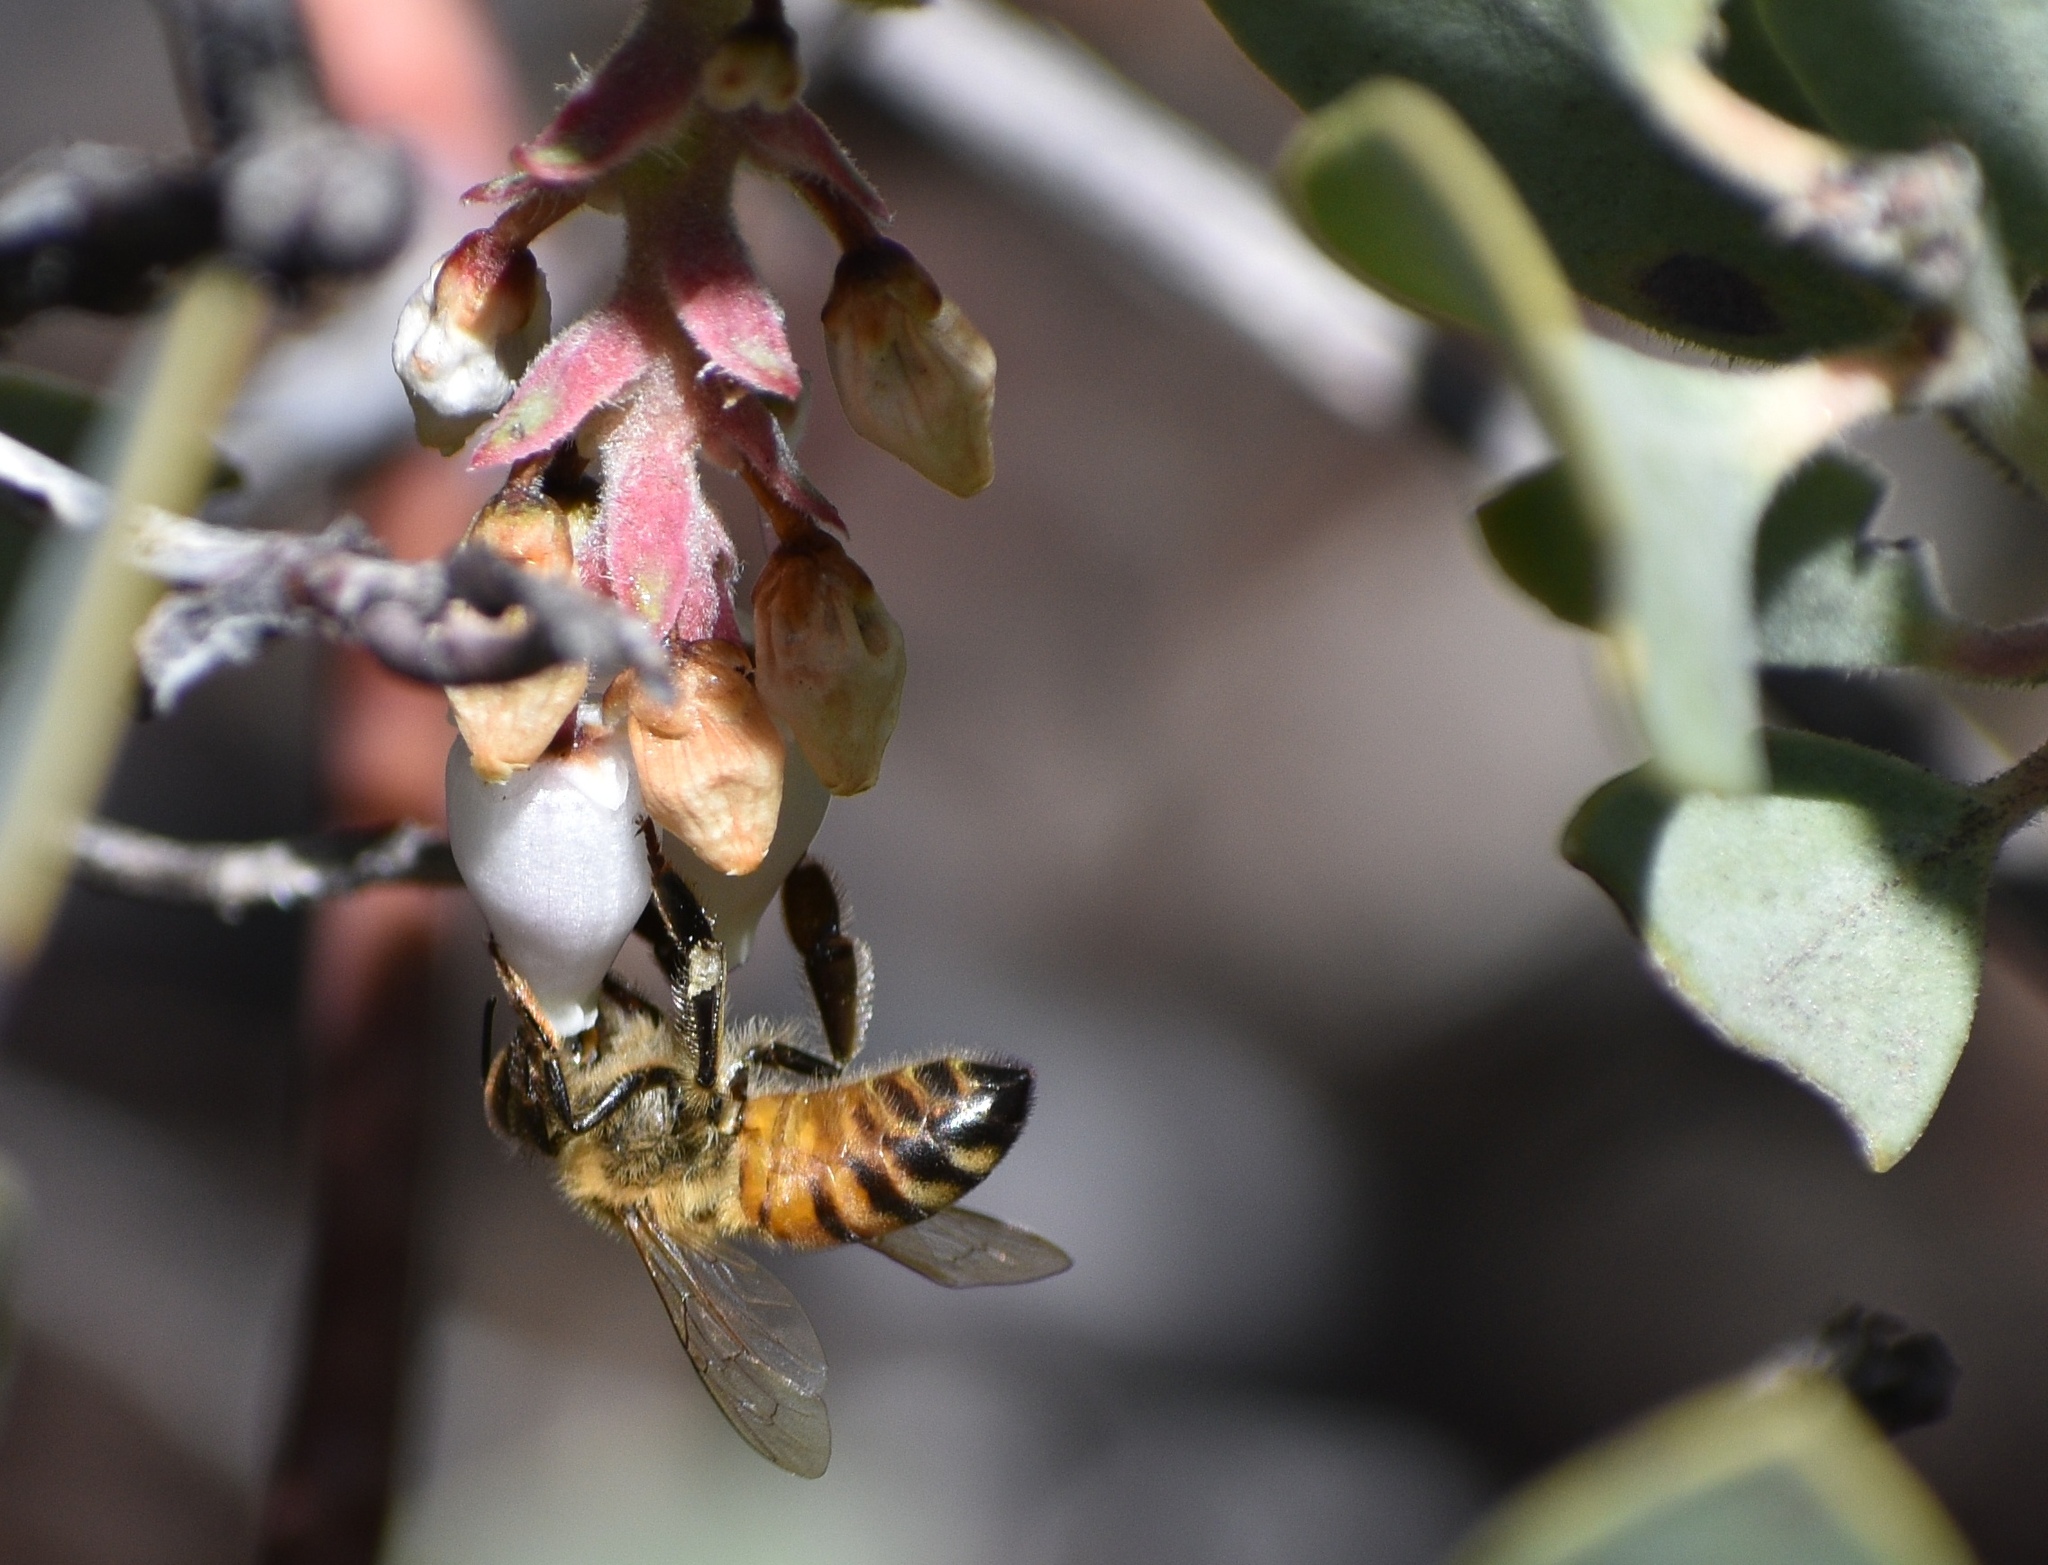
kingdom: Animalia
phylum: Arthropoda
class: Insecta
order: Hymenoptera
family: Apidae
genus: Apis
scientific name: Apis mellifera
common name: Honey bee
